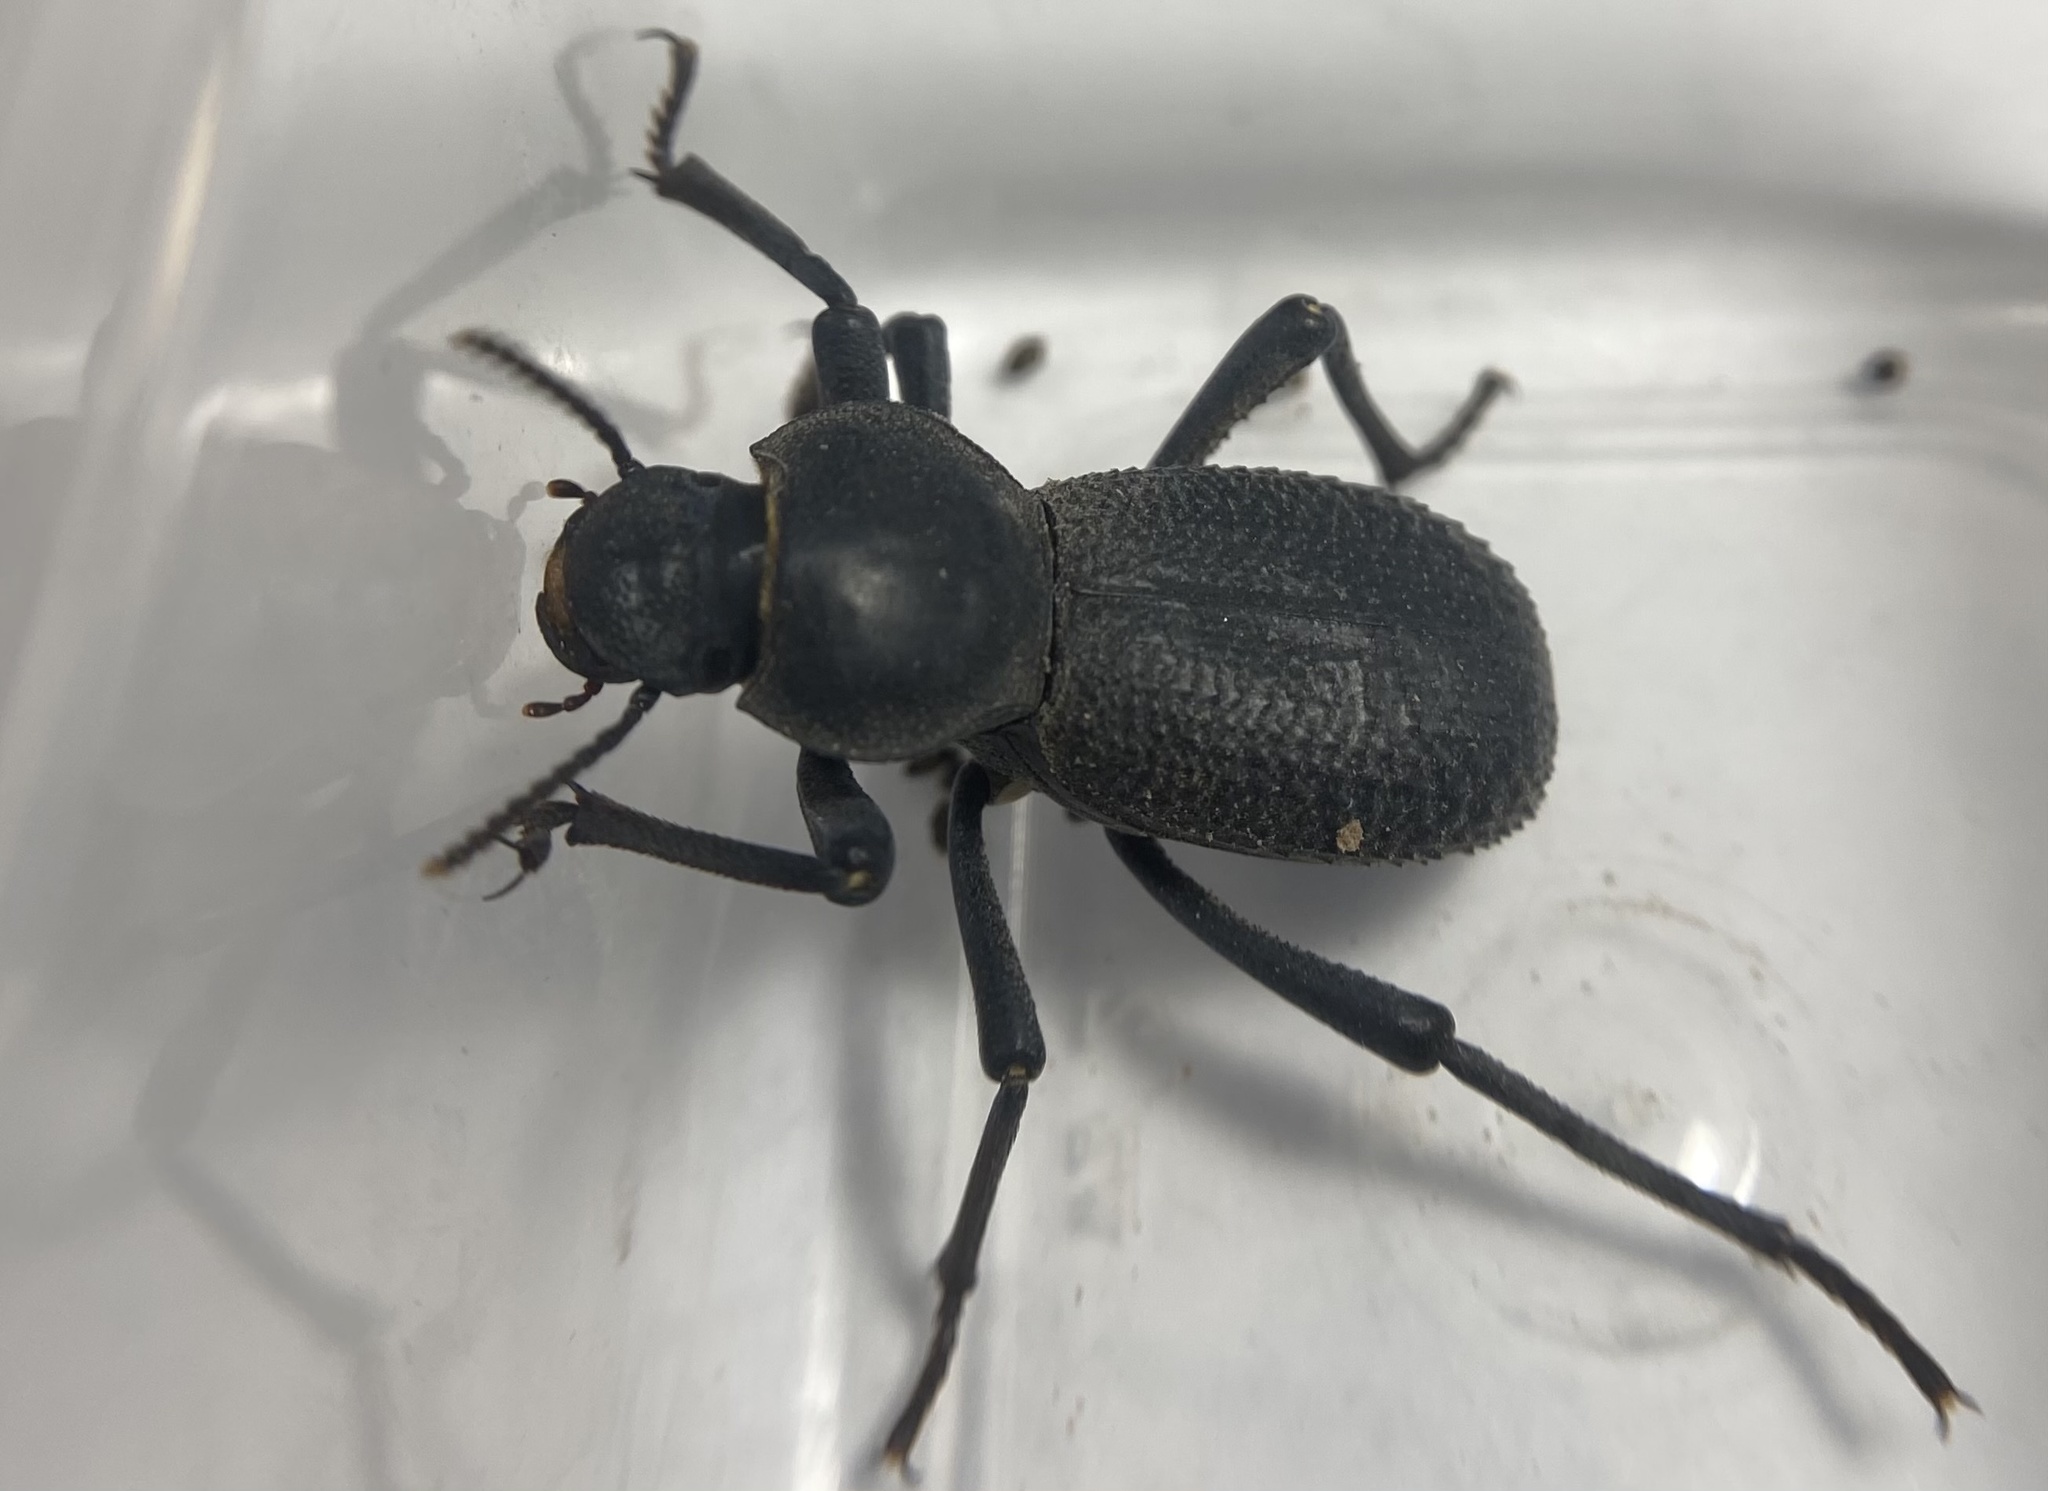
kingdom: Animalia
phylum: Arthropoda
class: Insecta
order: Coleoptera
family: Tenebrionidae
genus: Cryptoglossa
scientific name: Cryptoglossa muricata
